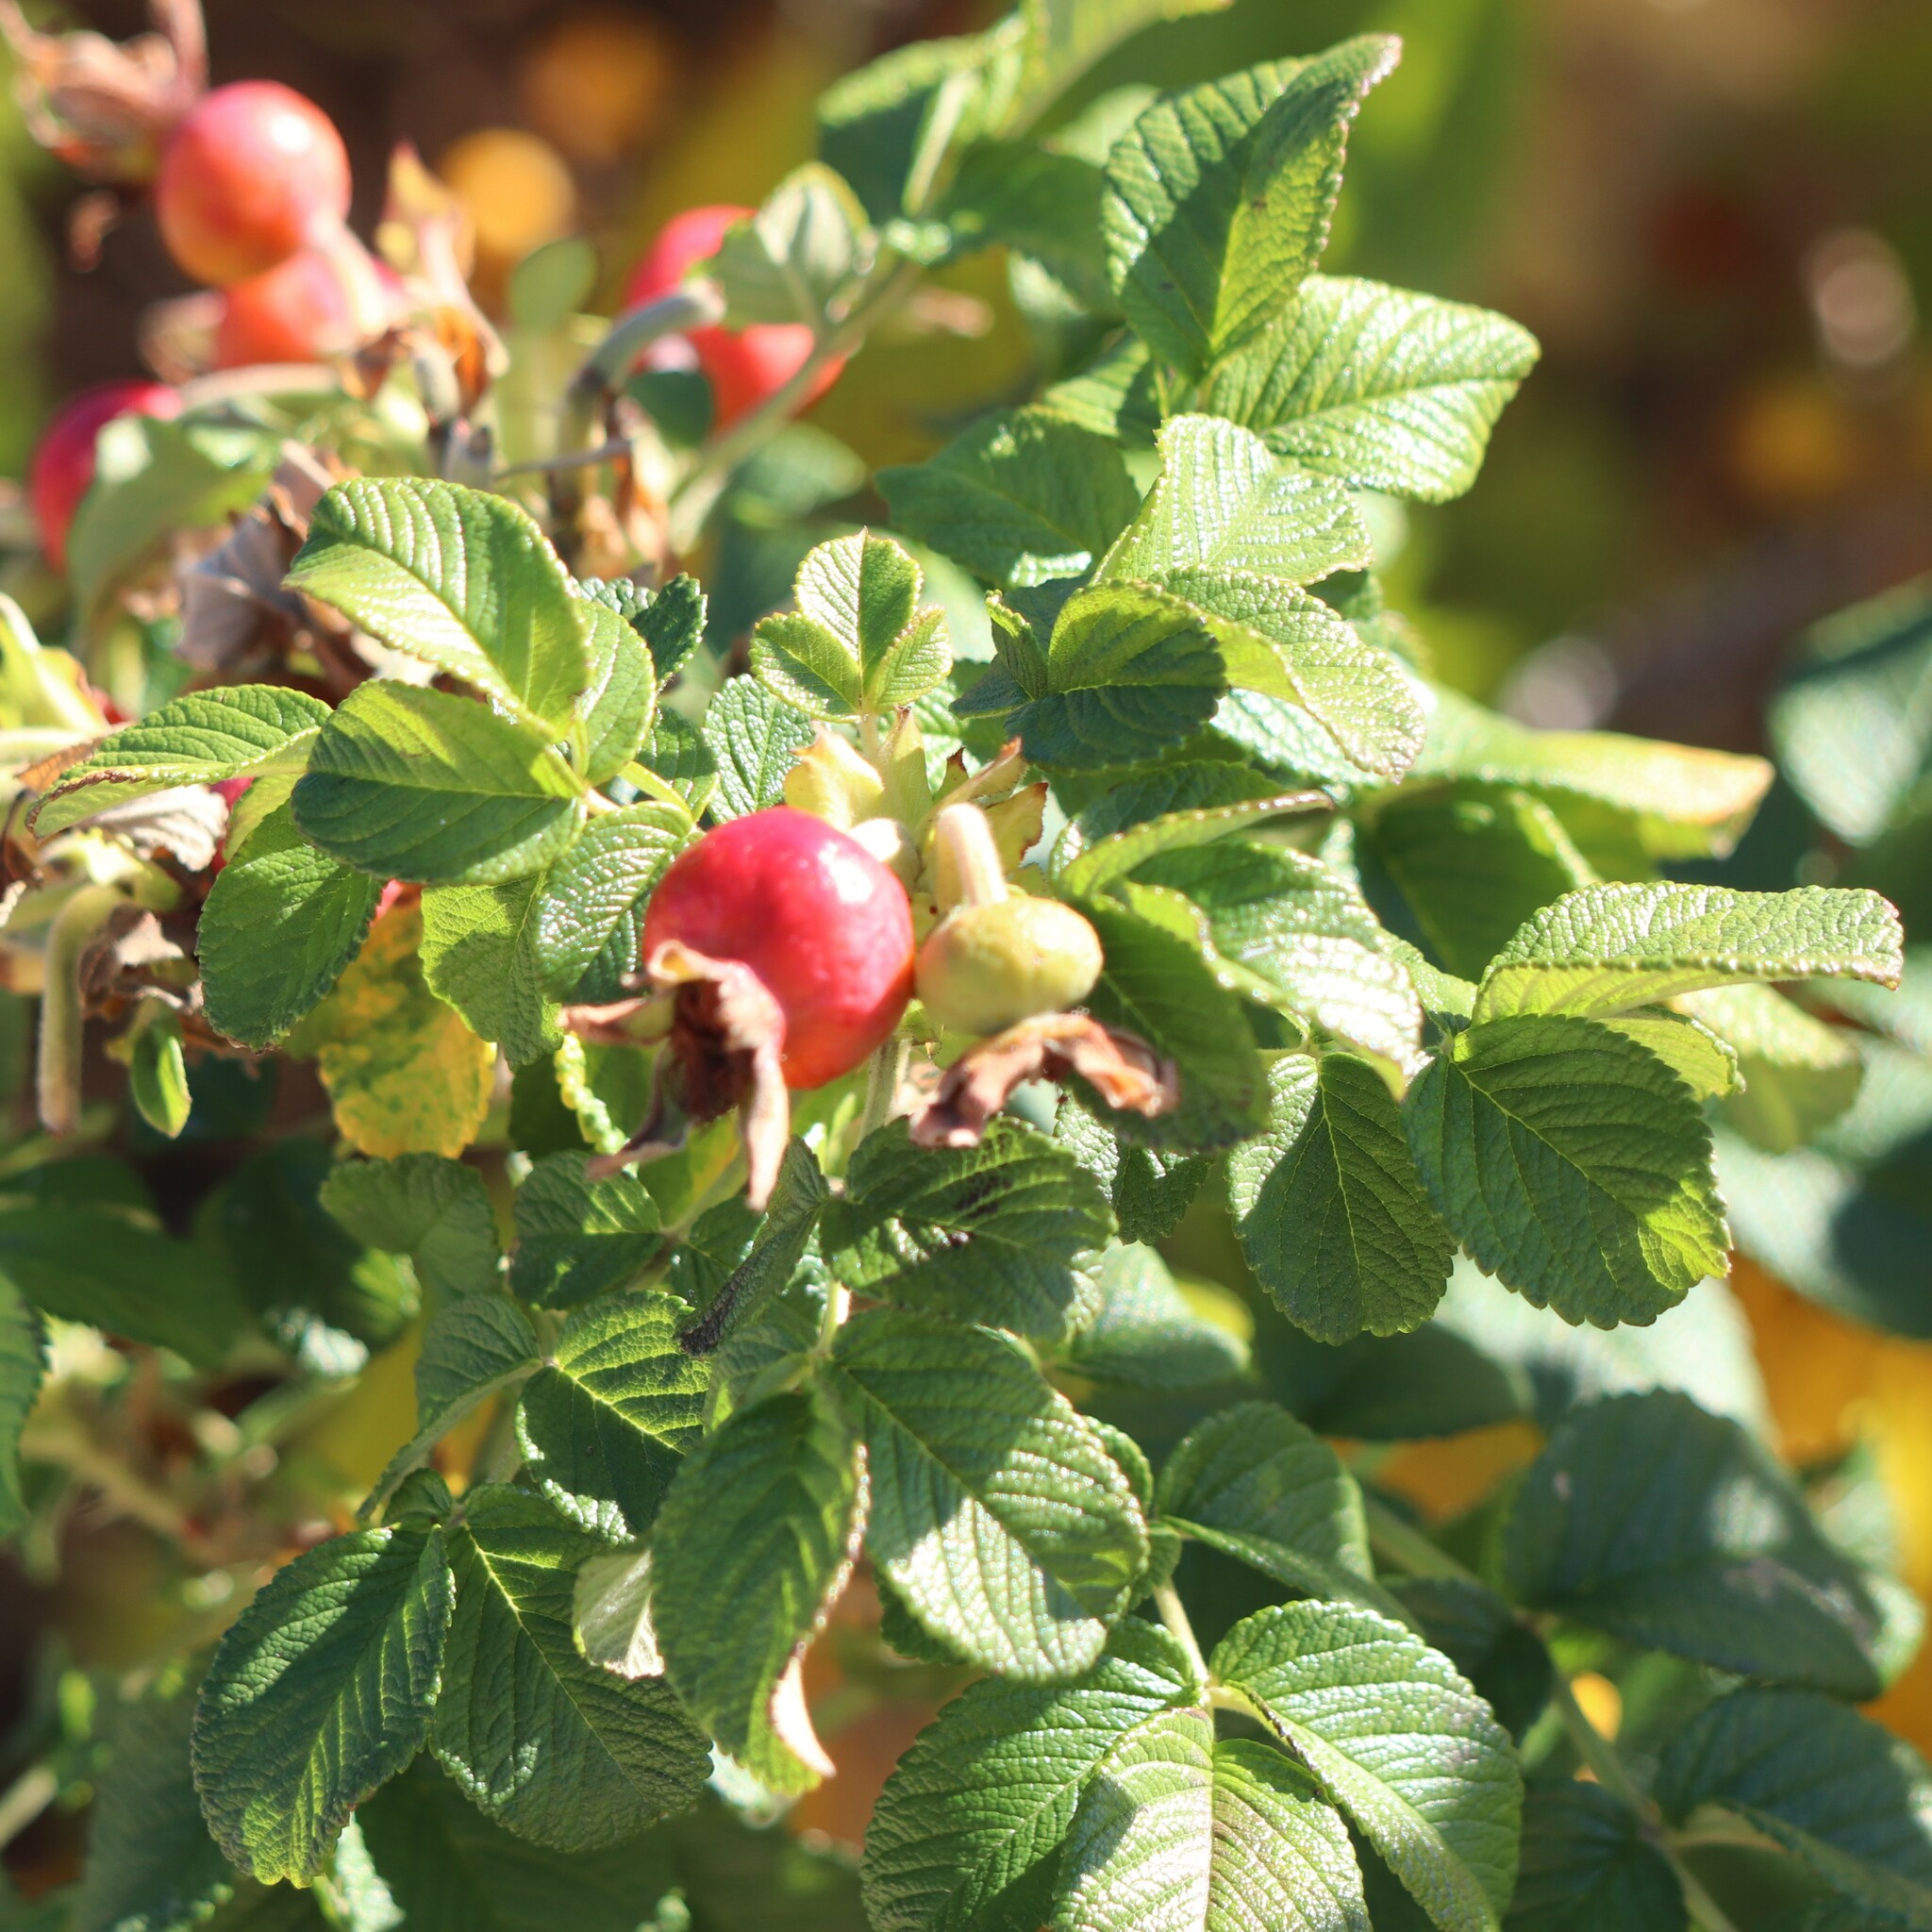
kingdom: Plantae
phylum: Tracheophyta
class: Magnoliopsida
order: Rosales
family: Rosaceae
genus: Rosa
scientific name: Rosa rugosa
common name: Japanese rose
